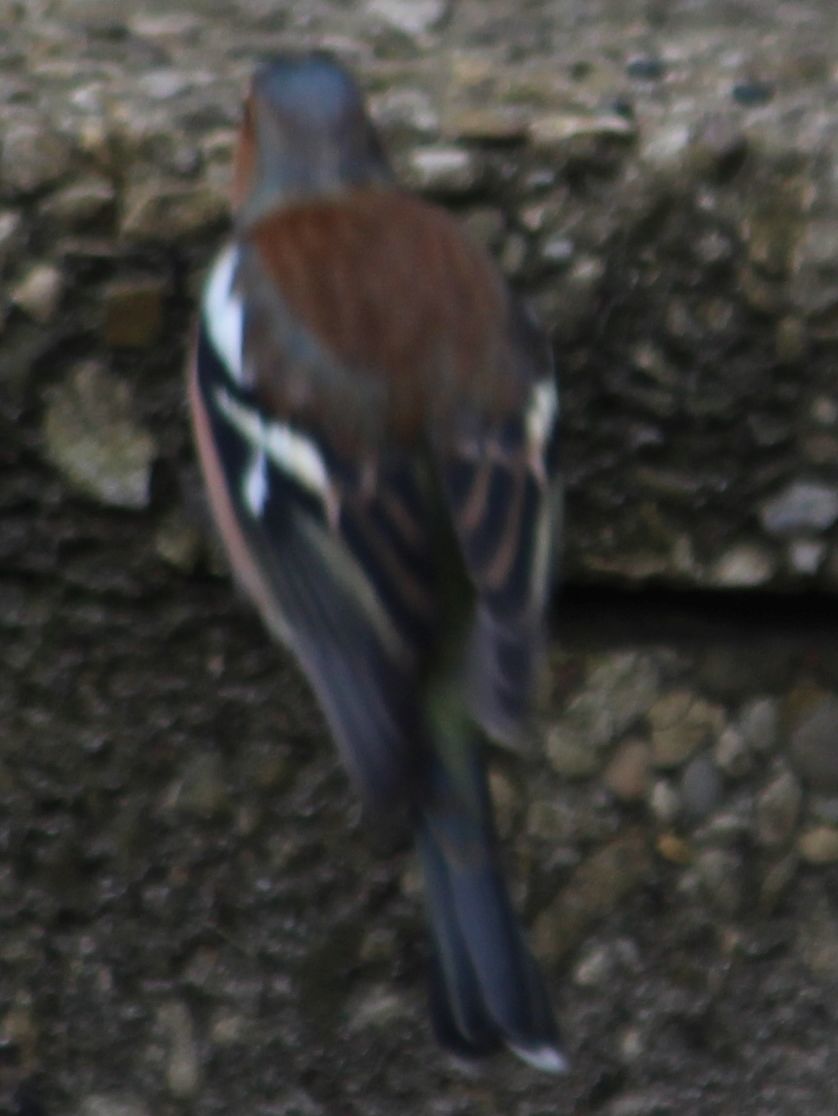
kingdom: Animalia
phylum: Chordata
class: Aves
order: Passeriformes
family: Fringillidae
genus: Fringilla
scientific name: Fringilla coelebs
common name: Common chaffinch
